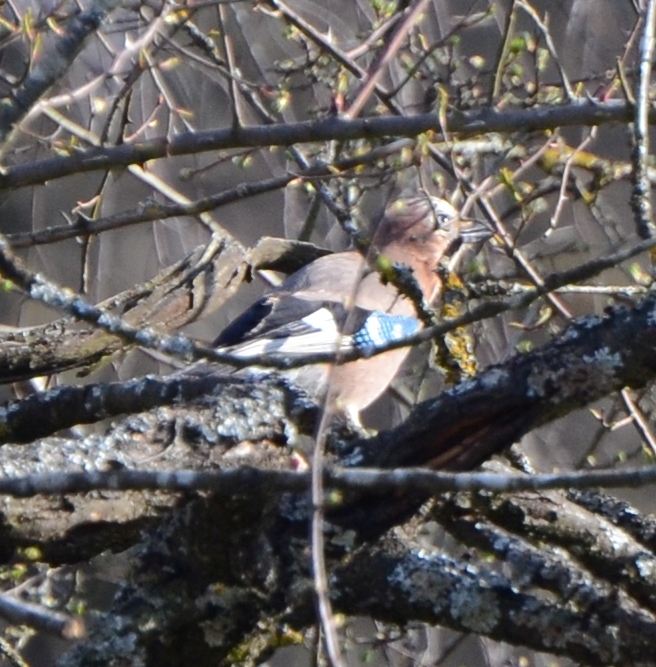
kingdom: Animalia
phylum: Chordata
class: Aves
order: Passeriformes
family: Corvidae
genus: Garrulus
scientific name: Garrulus glandarius
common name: Eurasian jay
